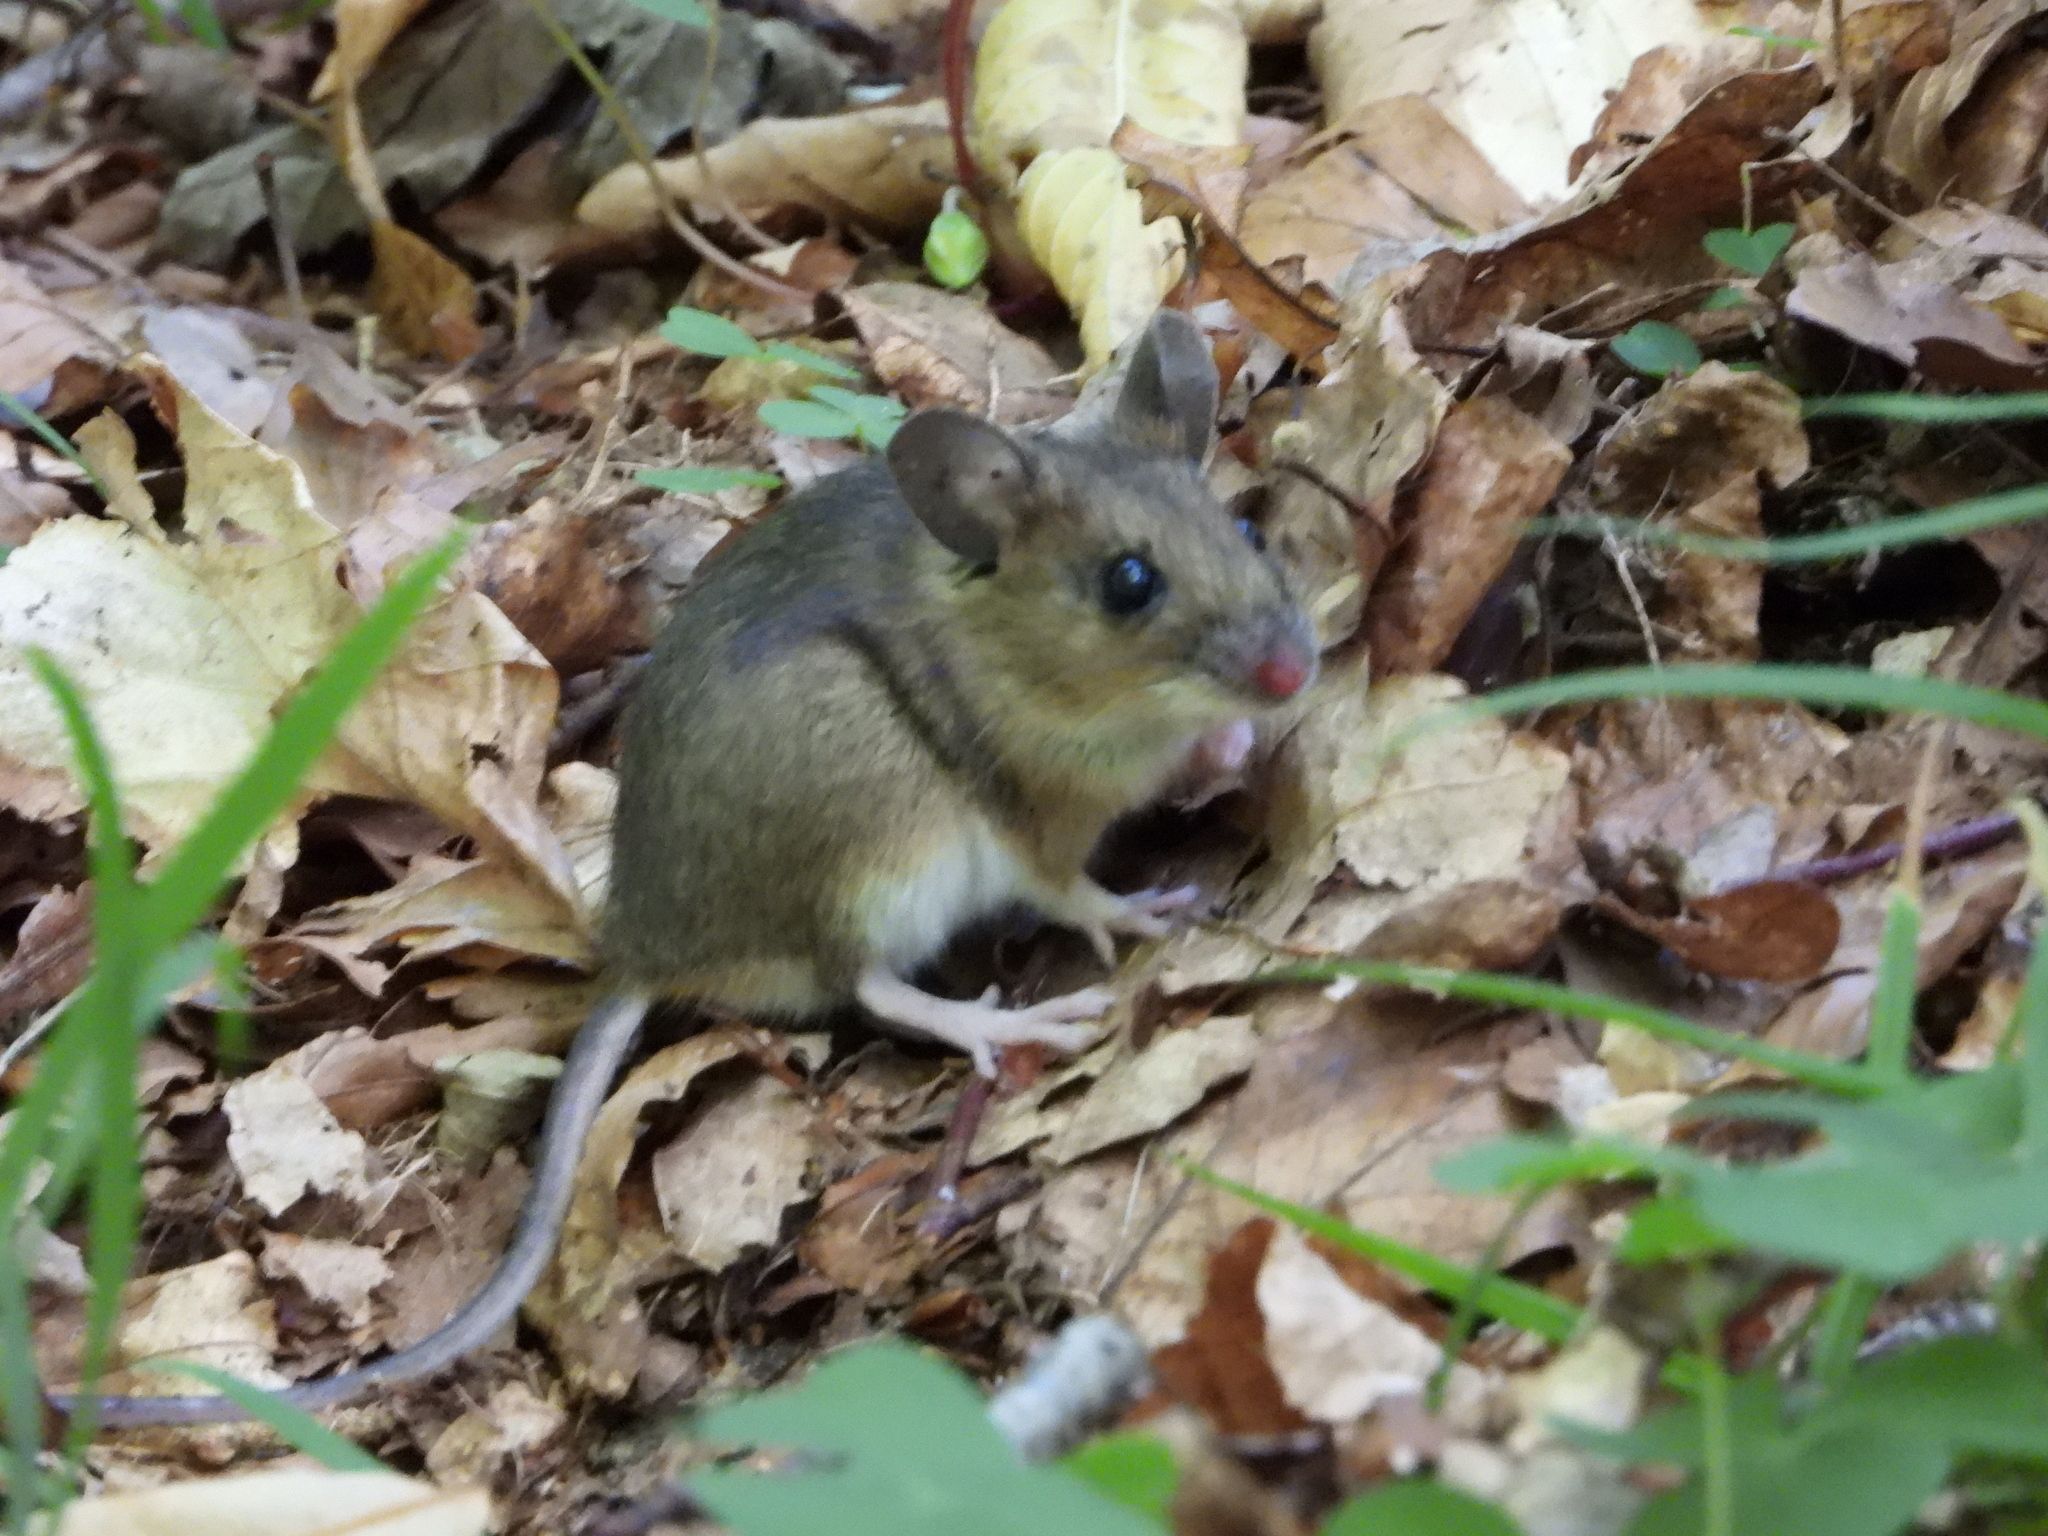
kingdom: Animalia
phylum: Chordata
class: Mammalia
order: Rodentia
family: Muridae
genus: Apodemus
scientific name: Apodemus flavicollis
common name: Yellow-necked field mouse
